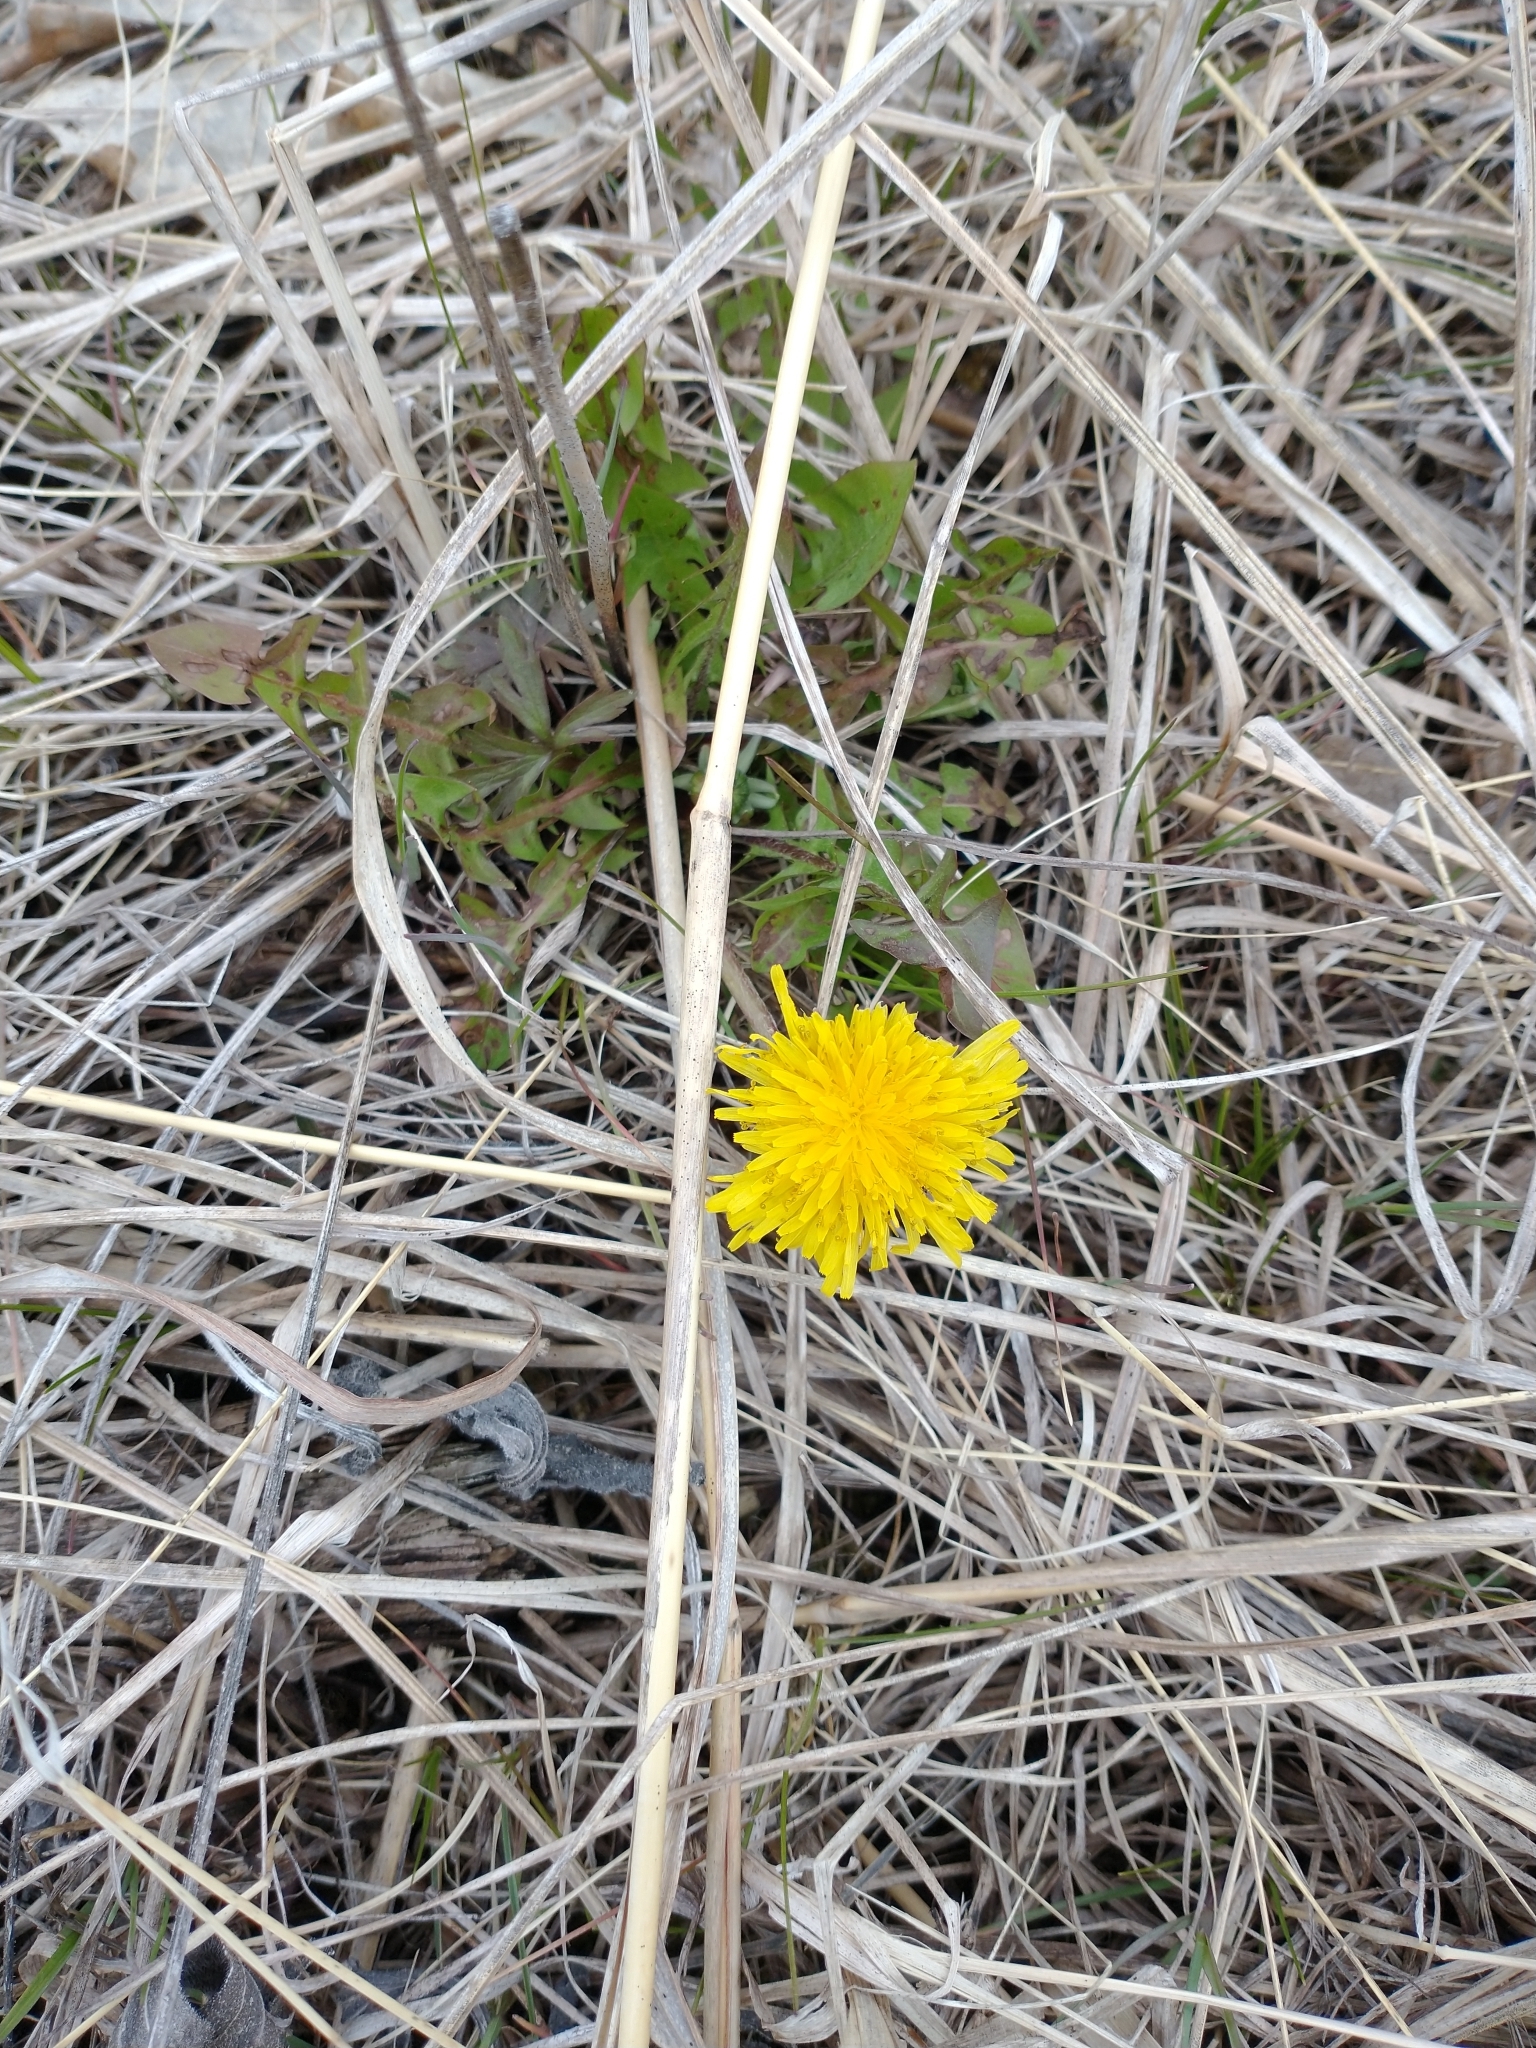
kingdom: Plantae
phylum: Tracheophyta
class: Magnoliopsida
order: Asterales
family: Asteraceae
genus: Taraxacum
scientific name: Taraxacum officinale
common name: Common dandelion
